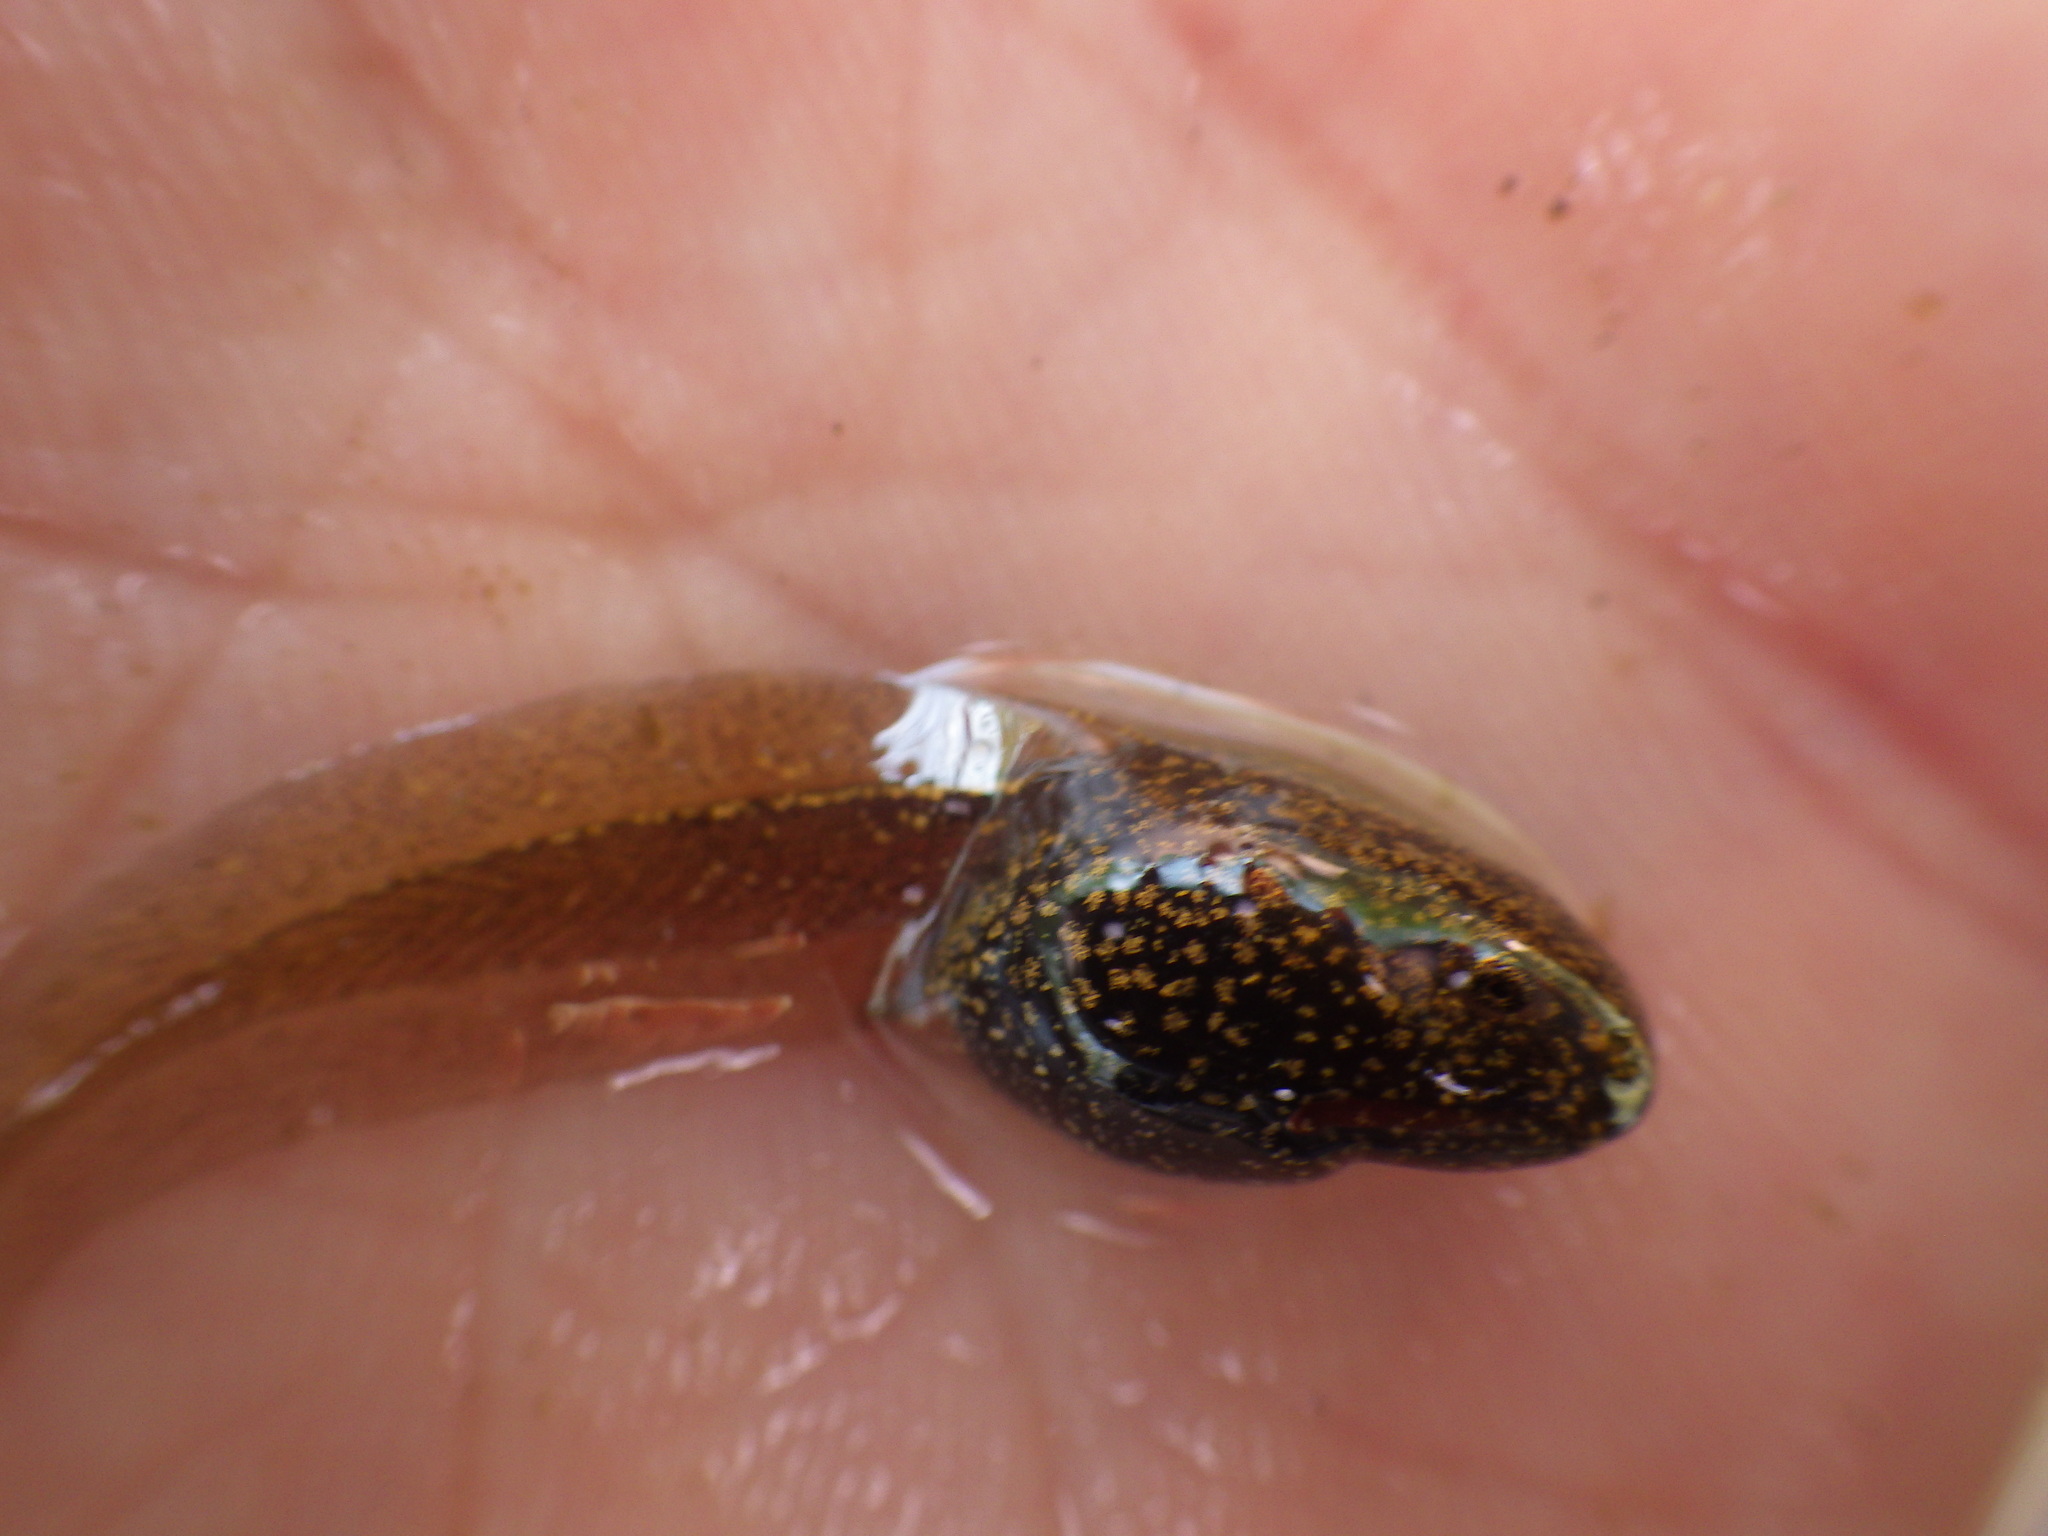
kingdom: Animalia
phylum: Chordata
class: Amphibia
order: Anura
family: Ranidae
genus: Rana
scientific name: Rana temporaria
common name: Common frog
